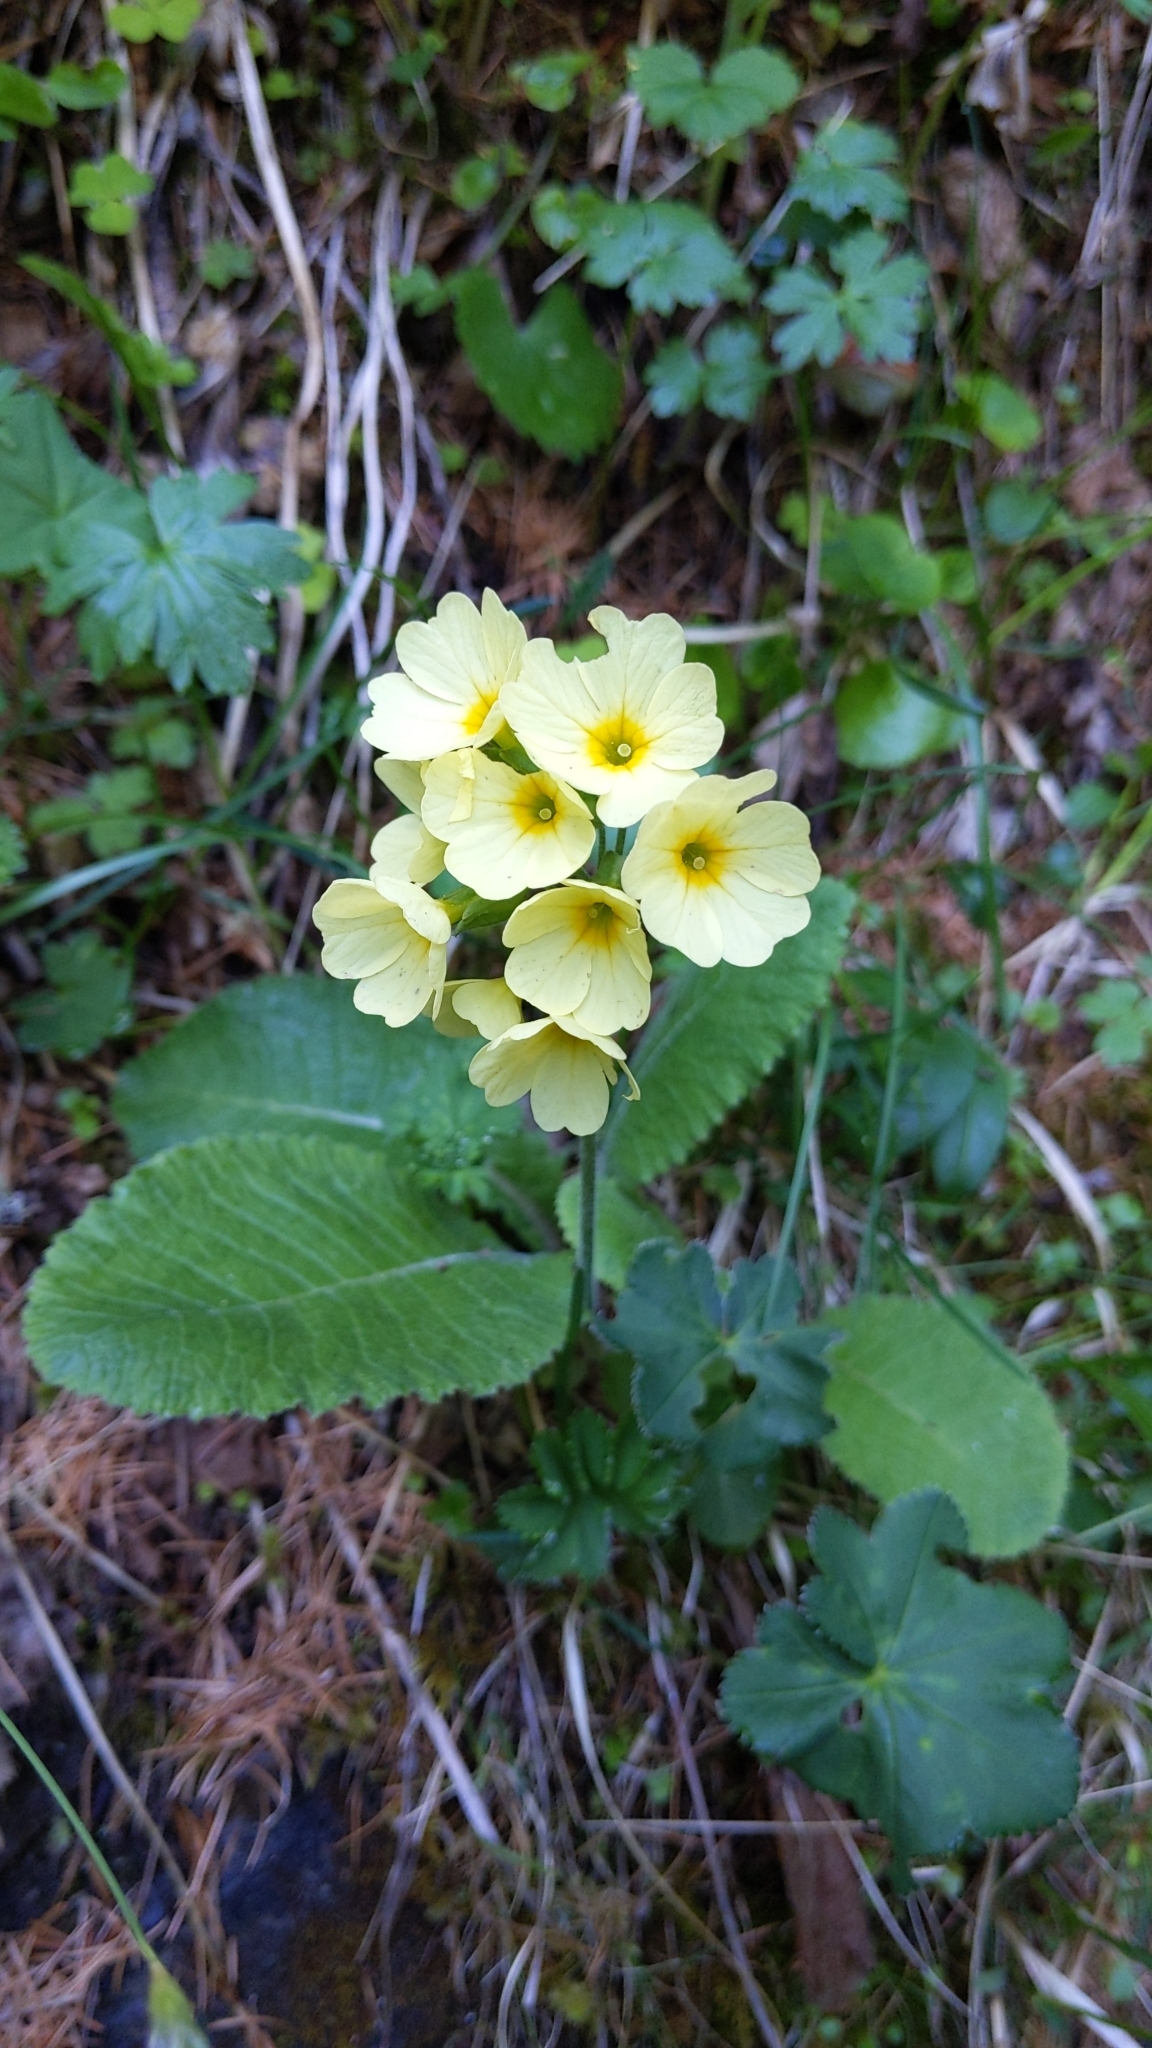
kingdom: Plantae
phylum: Tracheophyta
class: Magnoliopsida
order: Ericales
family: Primulaceae
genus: Primula
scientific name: Primula elatior
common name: Oxlip
